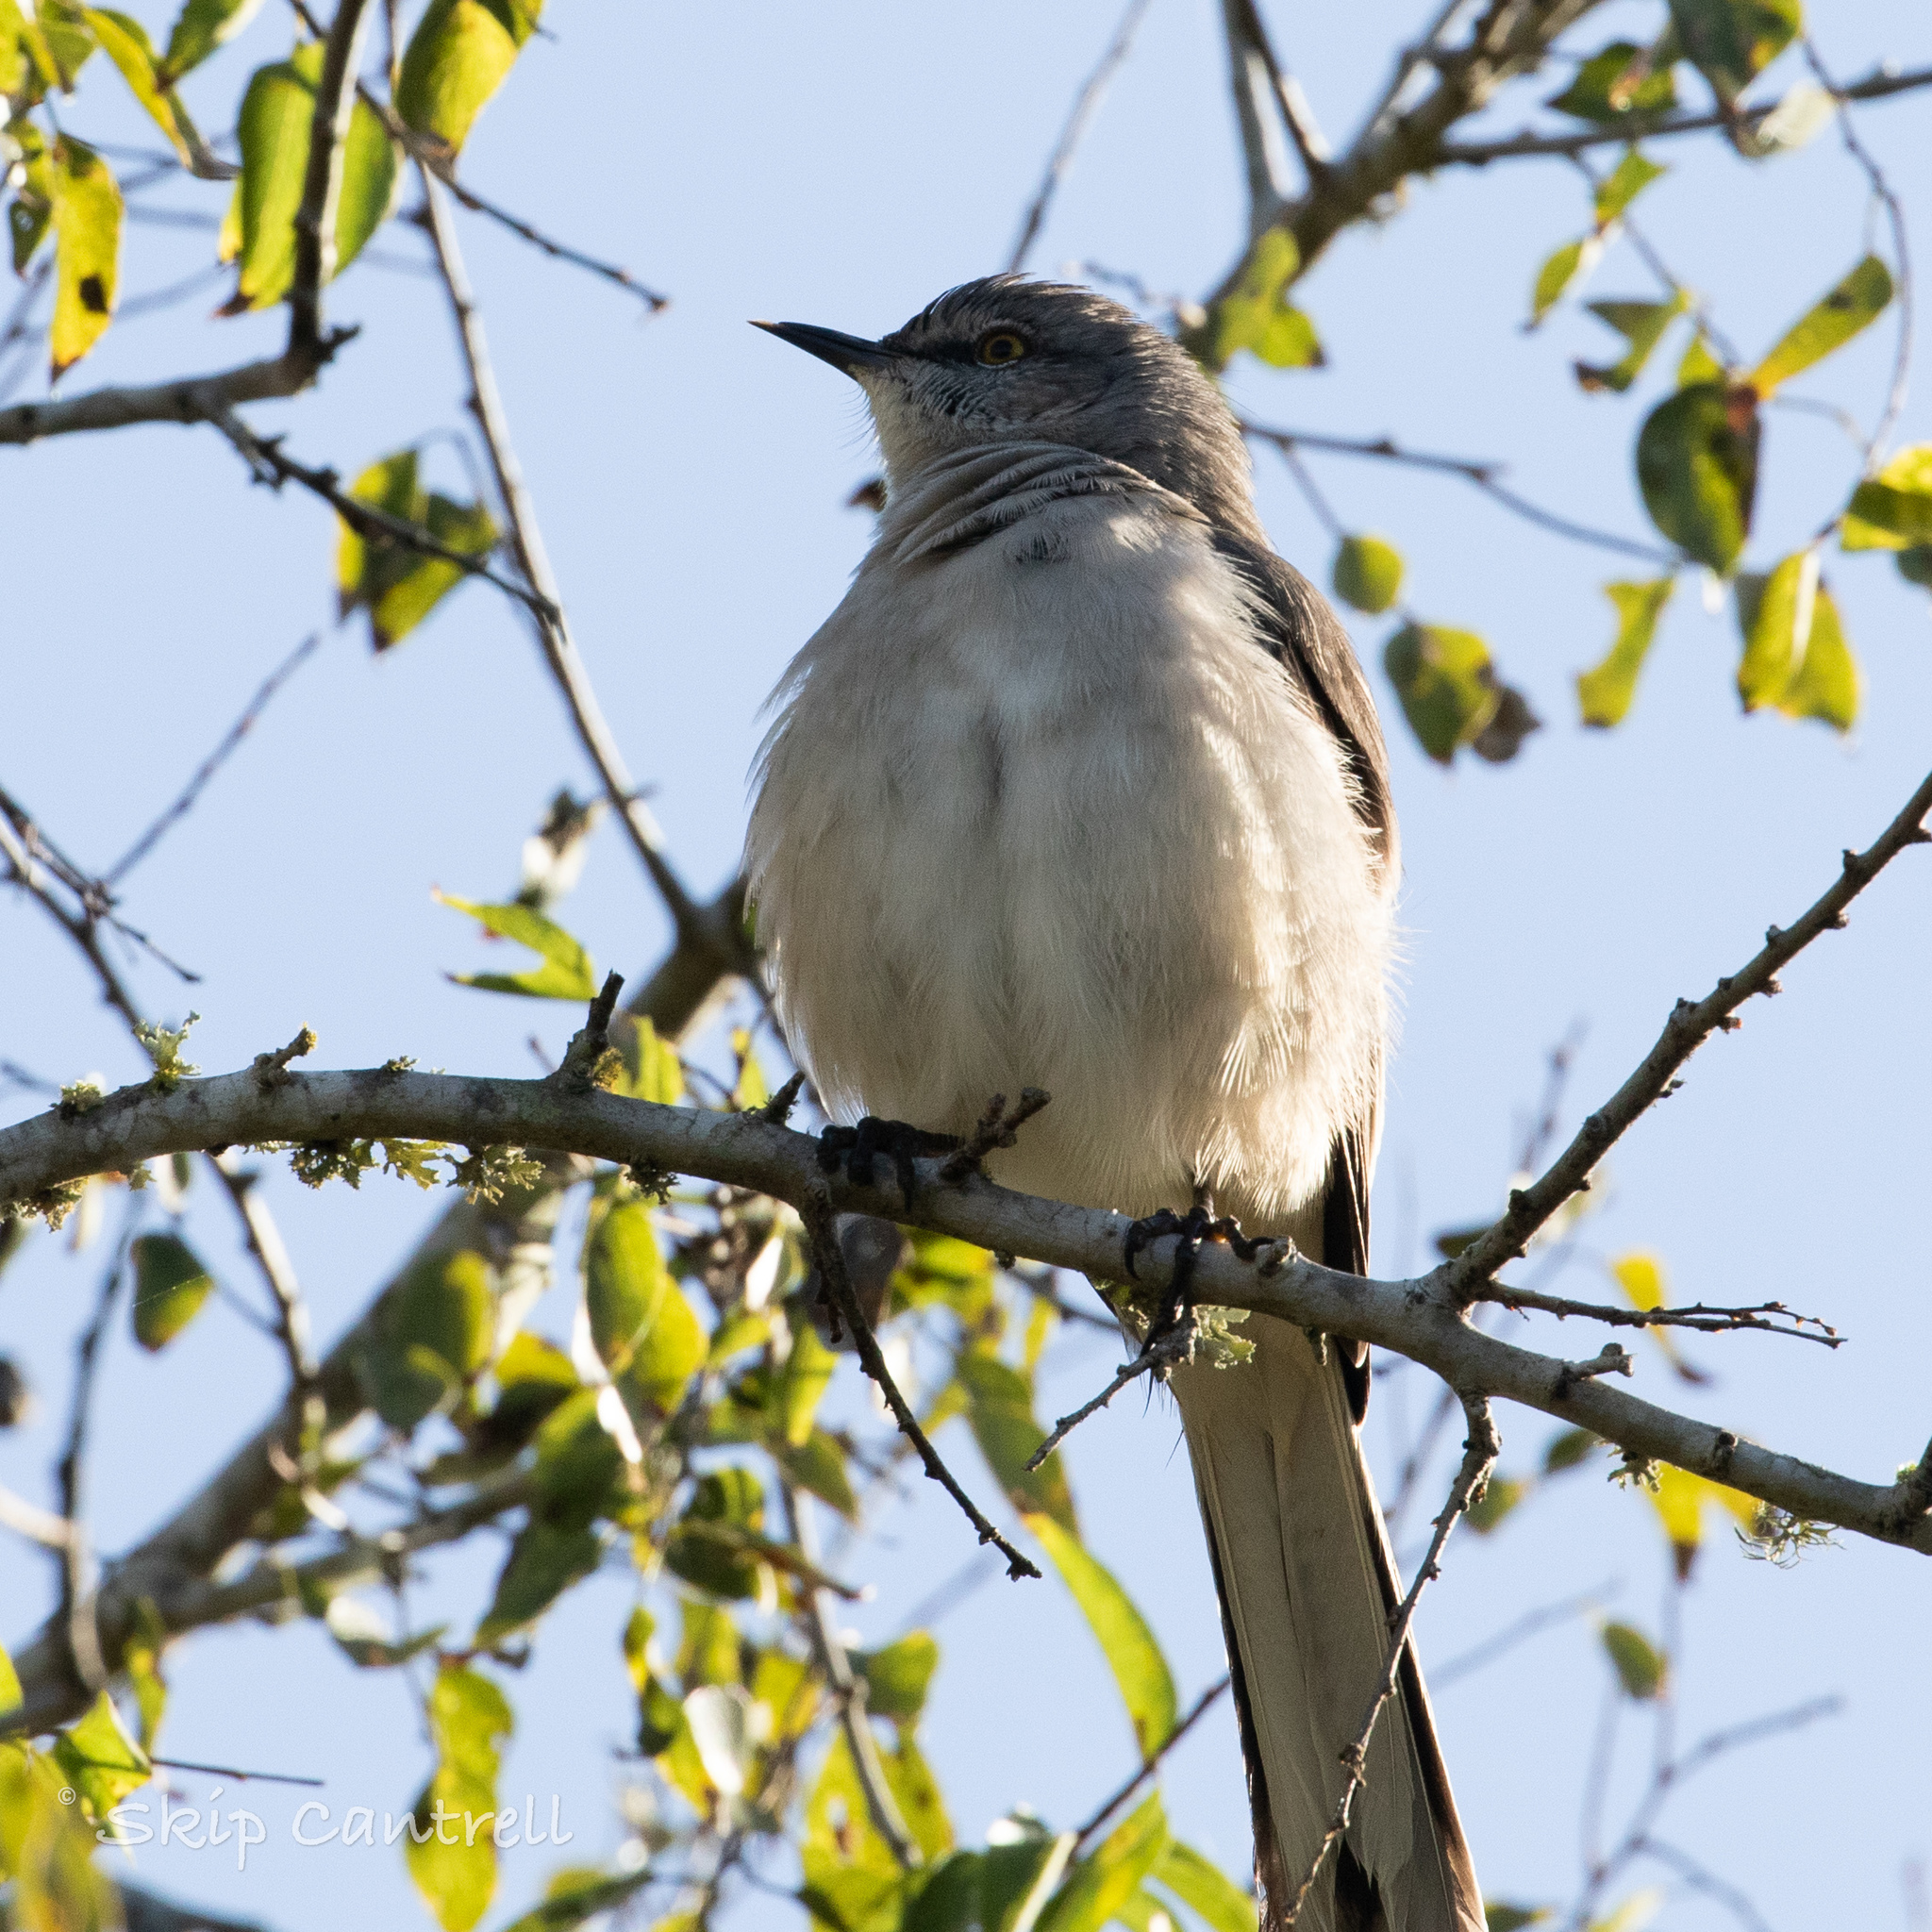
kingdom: Animalia
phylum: Chordata
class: Aves
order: Passeriformes
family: Mimidae
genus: Mimus
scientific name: Mimus polyglottos
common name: Northern mockingbird
